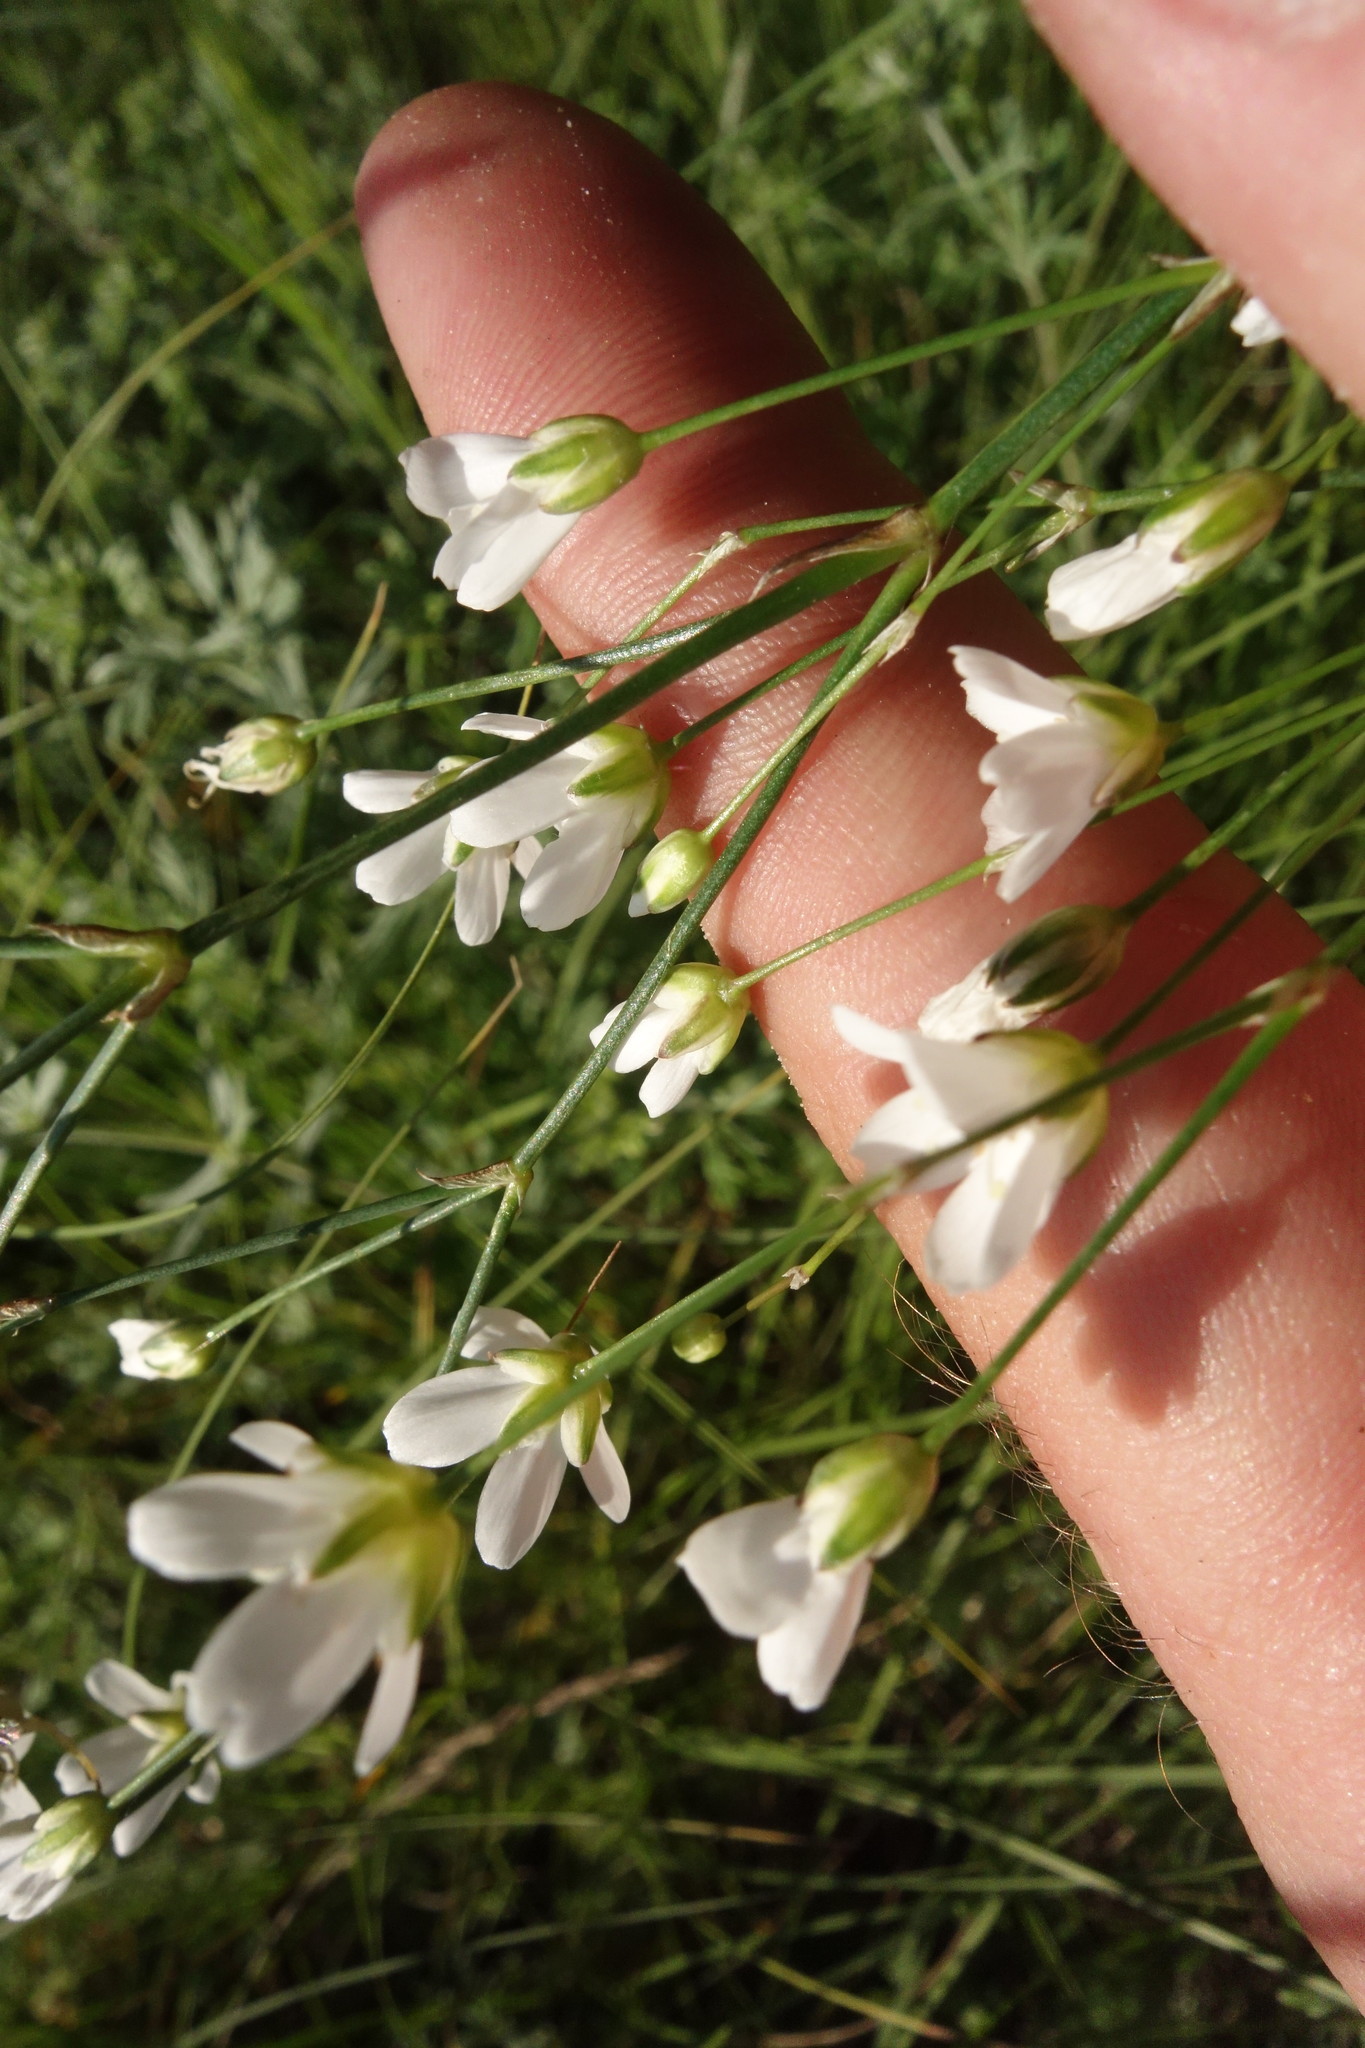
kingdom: Plantae
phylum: Tracheophyta
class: Magnoliopsida
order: Caryophyllales
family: Caryophyllaceae
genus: Eremogone
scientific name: Eremogone saxatilis
